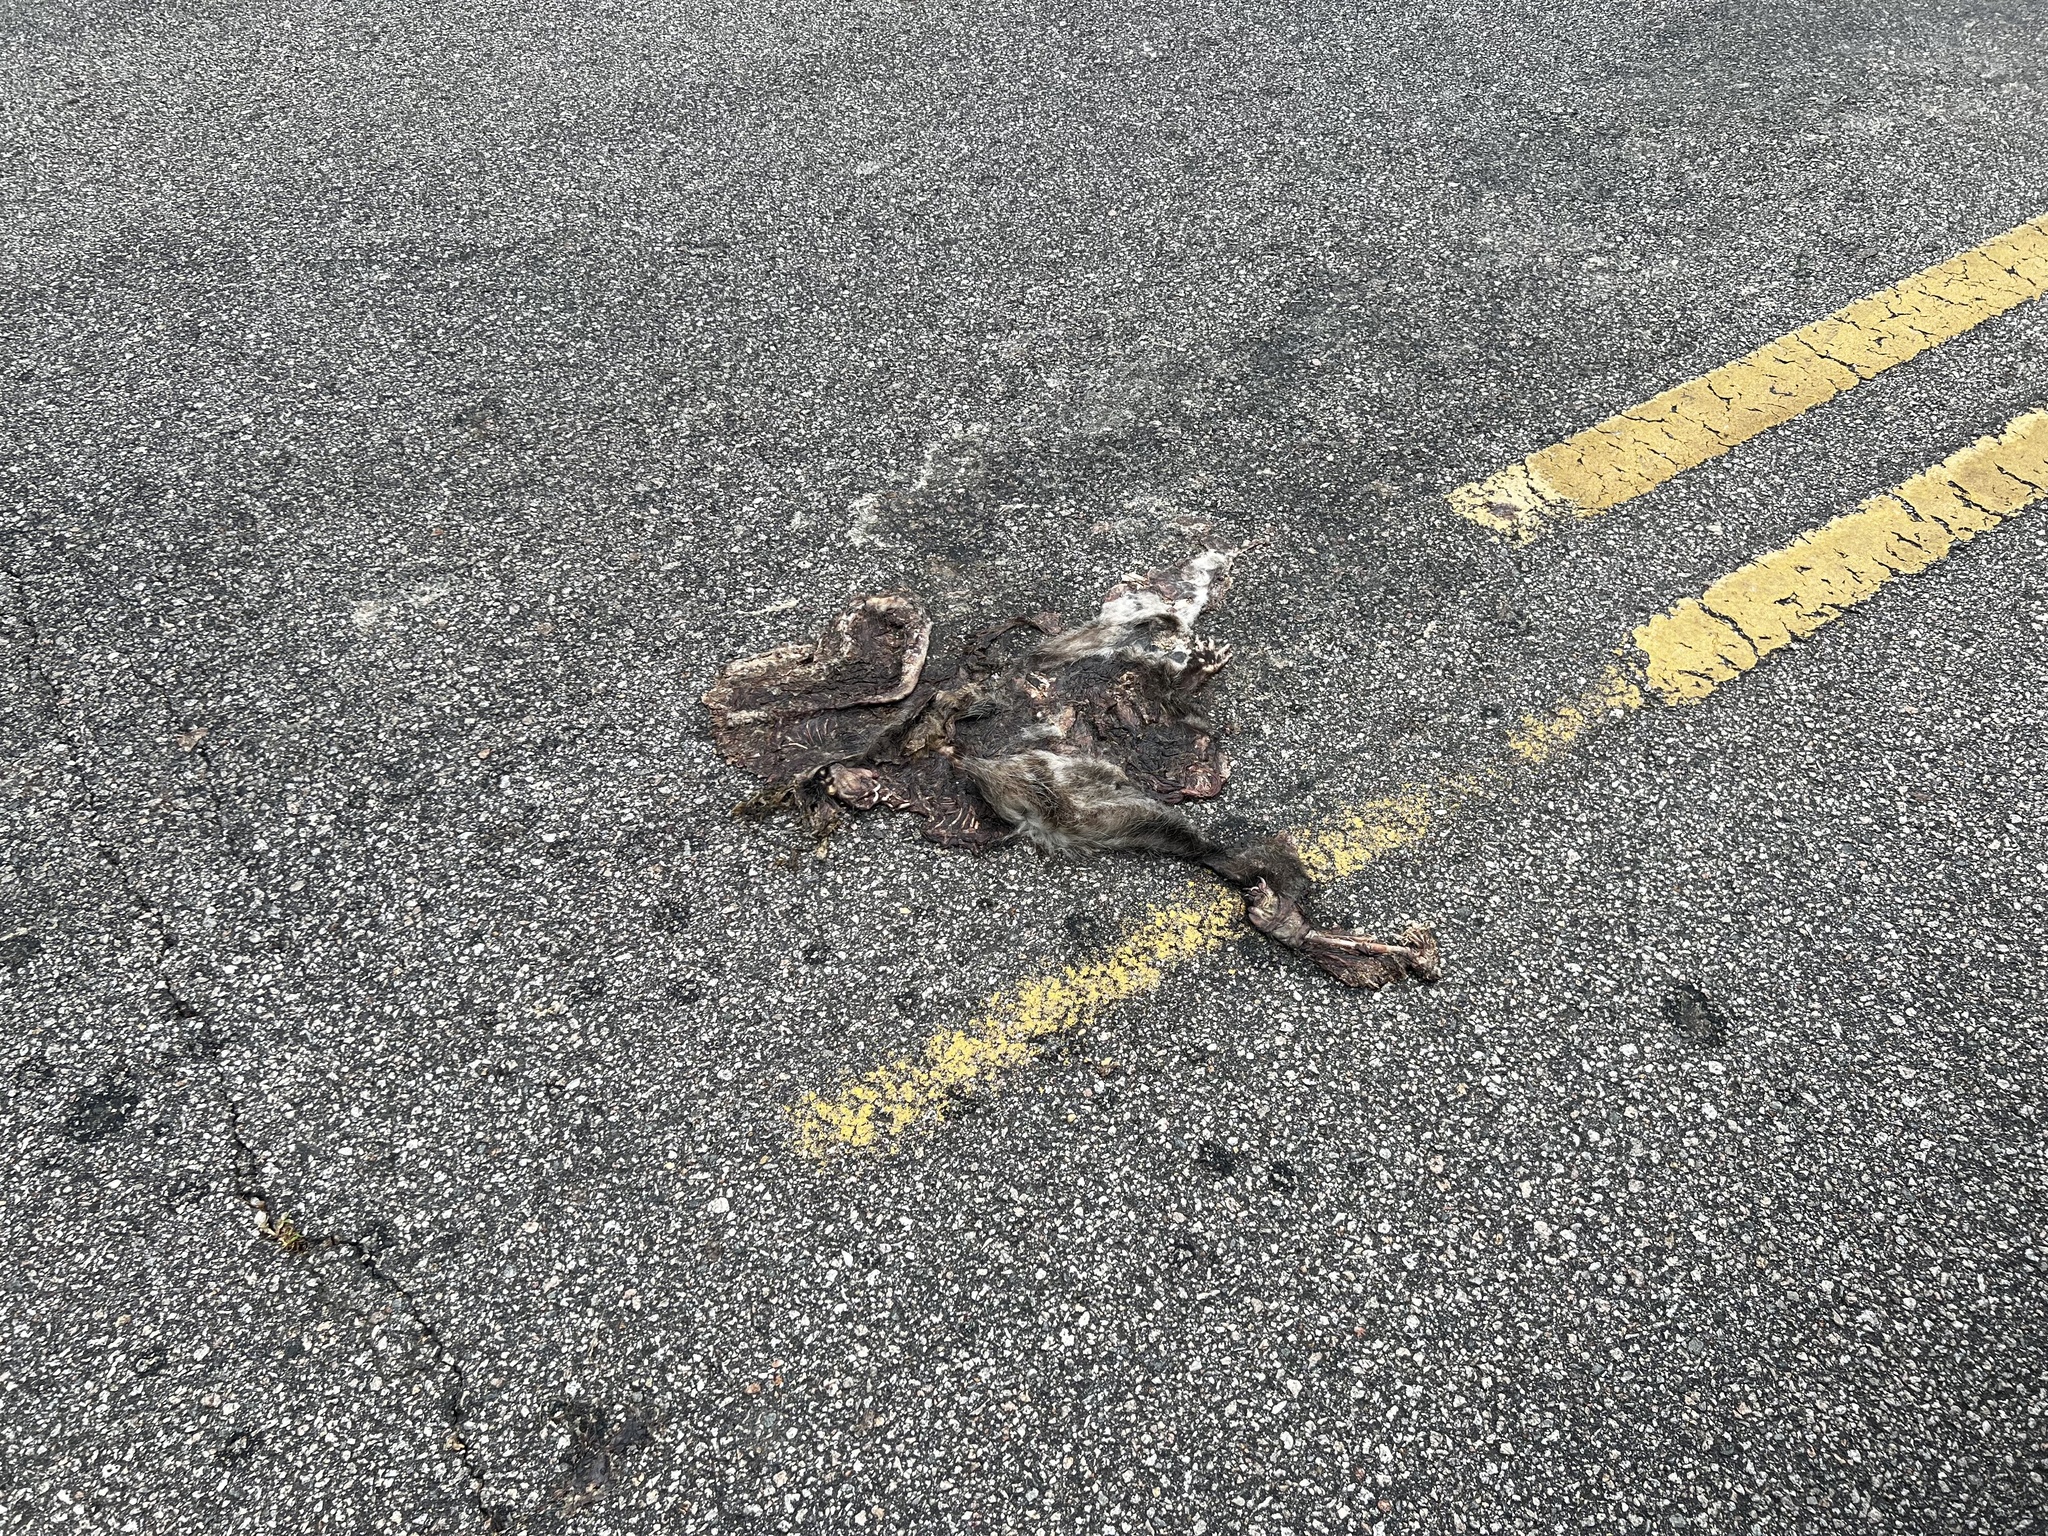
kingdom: Animalia
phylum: Chordata
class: Mammalia
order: Didelphimorphia
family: Didelphidae
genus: Didelphis
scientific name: Didelphis virginiana
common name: Virginia opossum
